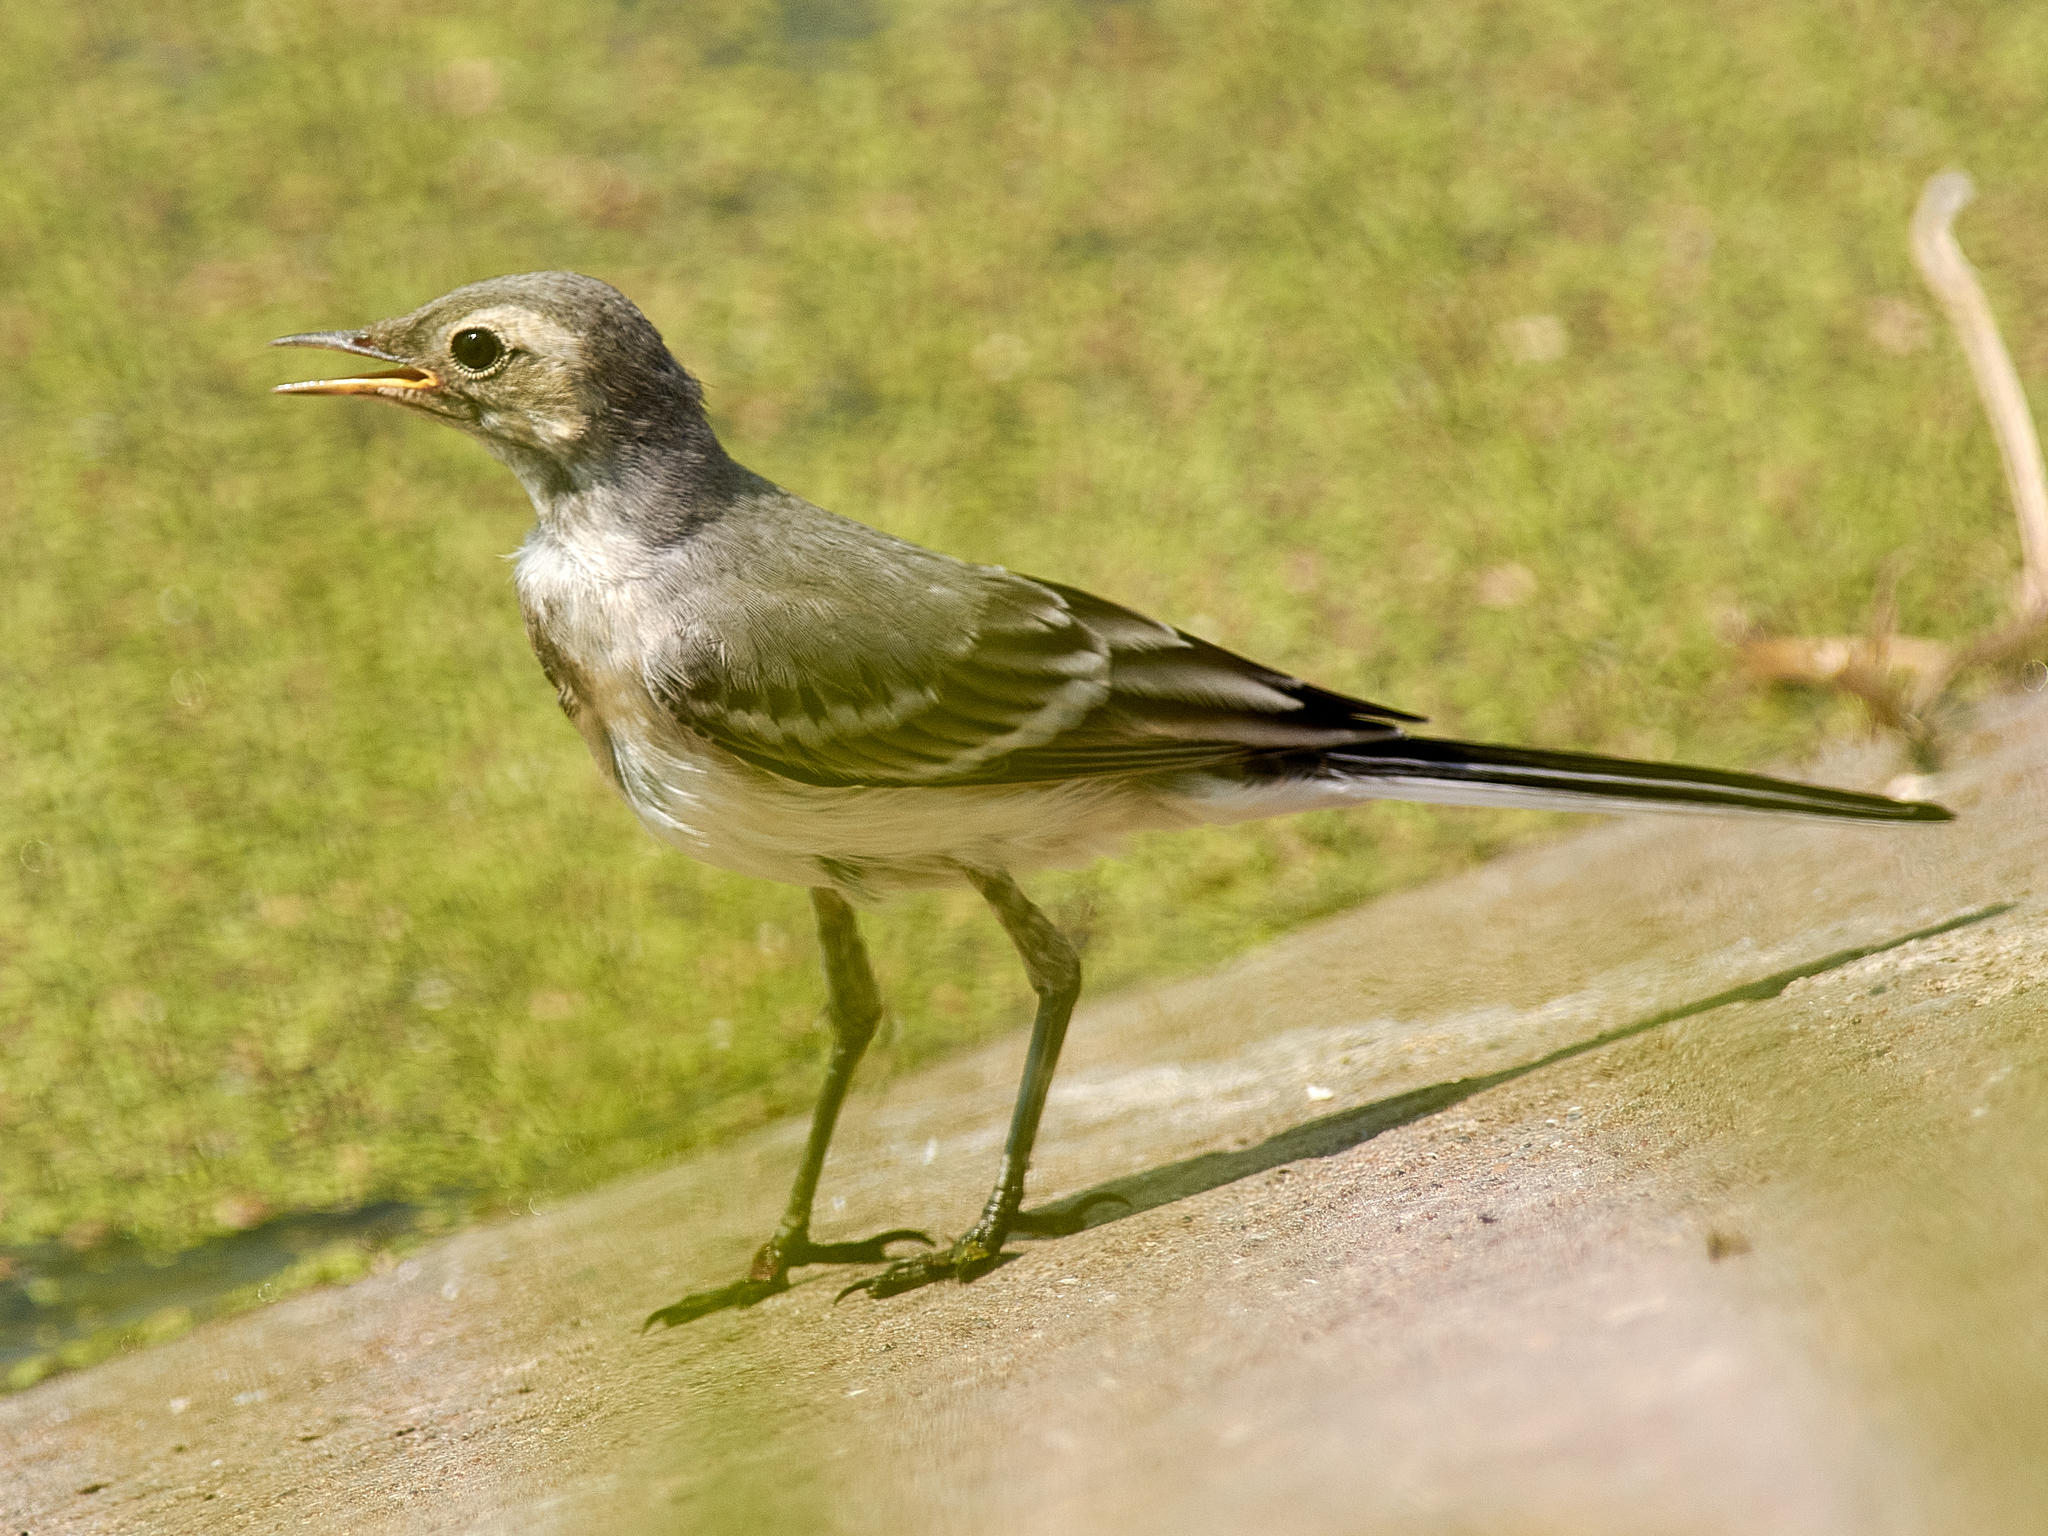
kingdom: Animalia
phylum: Chordata
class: Aves
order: Passeriformes
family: Motacillidae
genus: Motacilla
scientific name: Motacilla alba
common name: White wagtail
